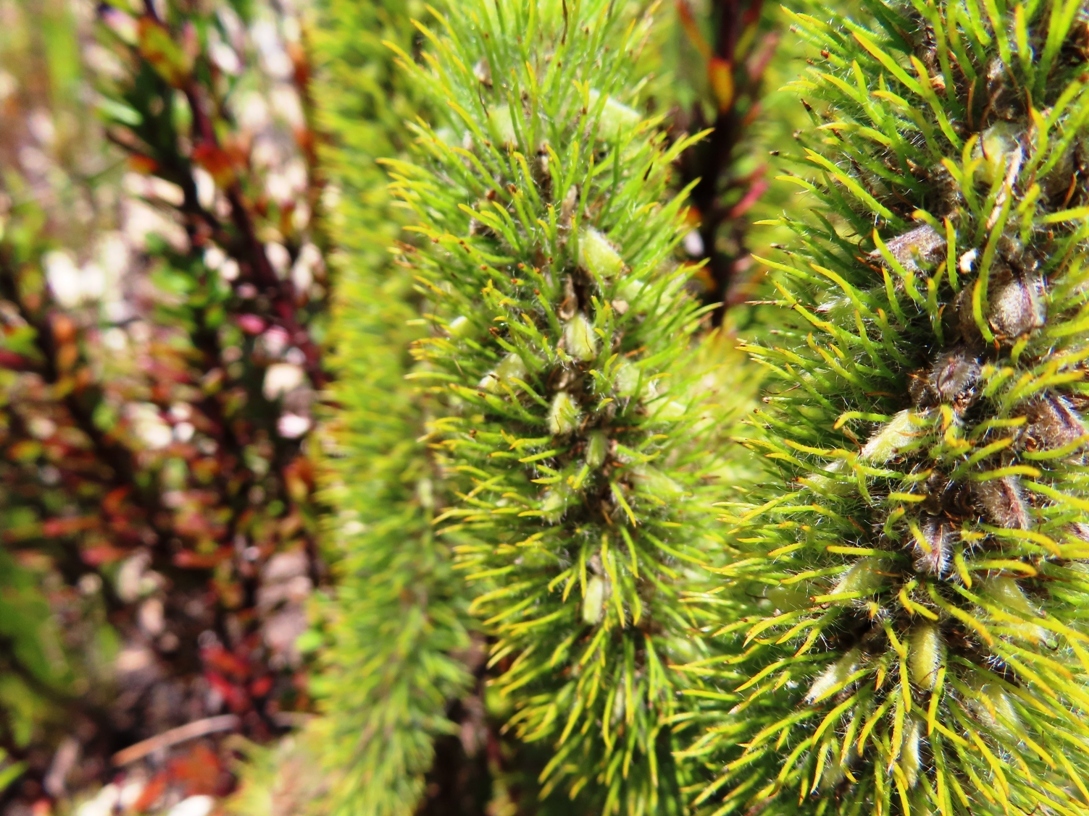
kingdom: Plantae
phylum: Tracheophyta
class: Magnoliopsida
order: Fabales
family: Fabaceae
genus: Aspalathus
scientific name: Aspalathus alopecurus
